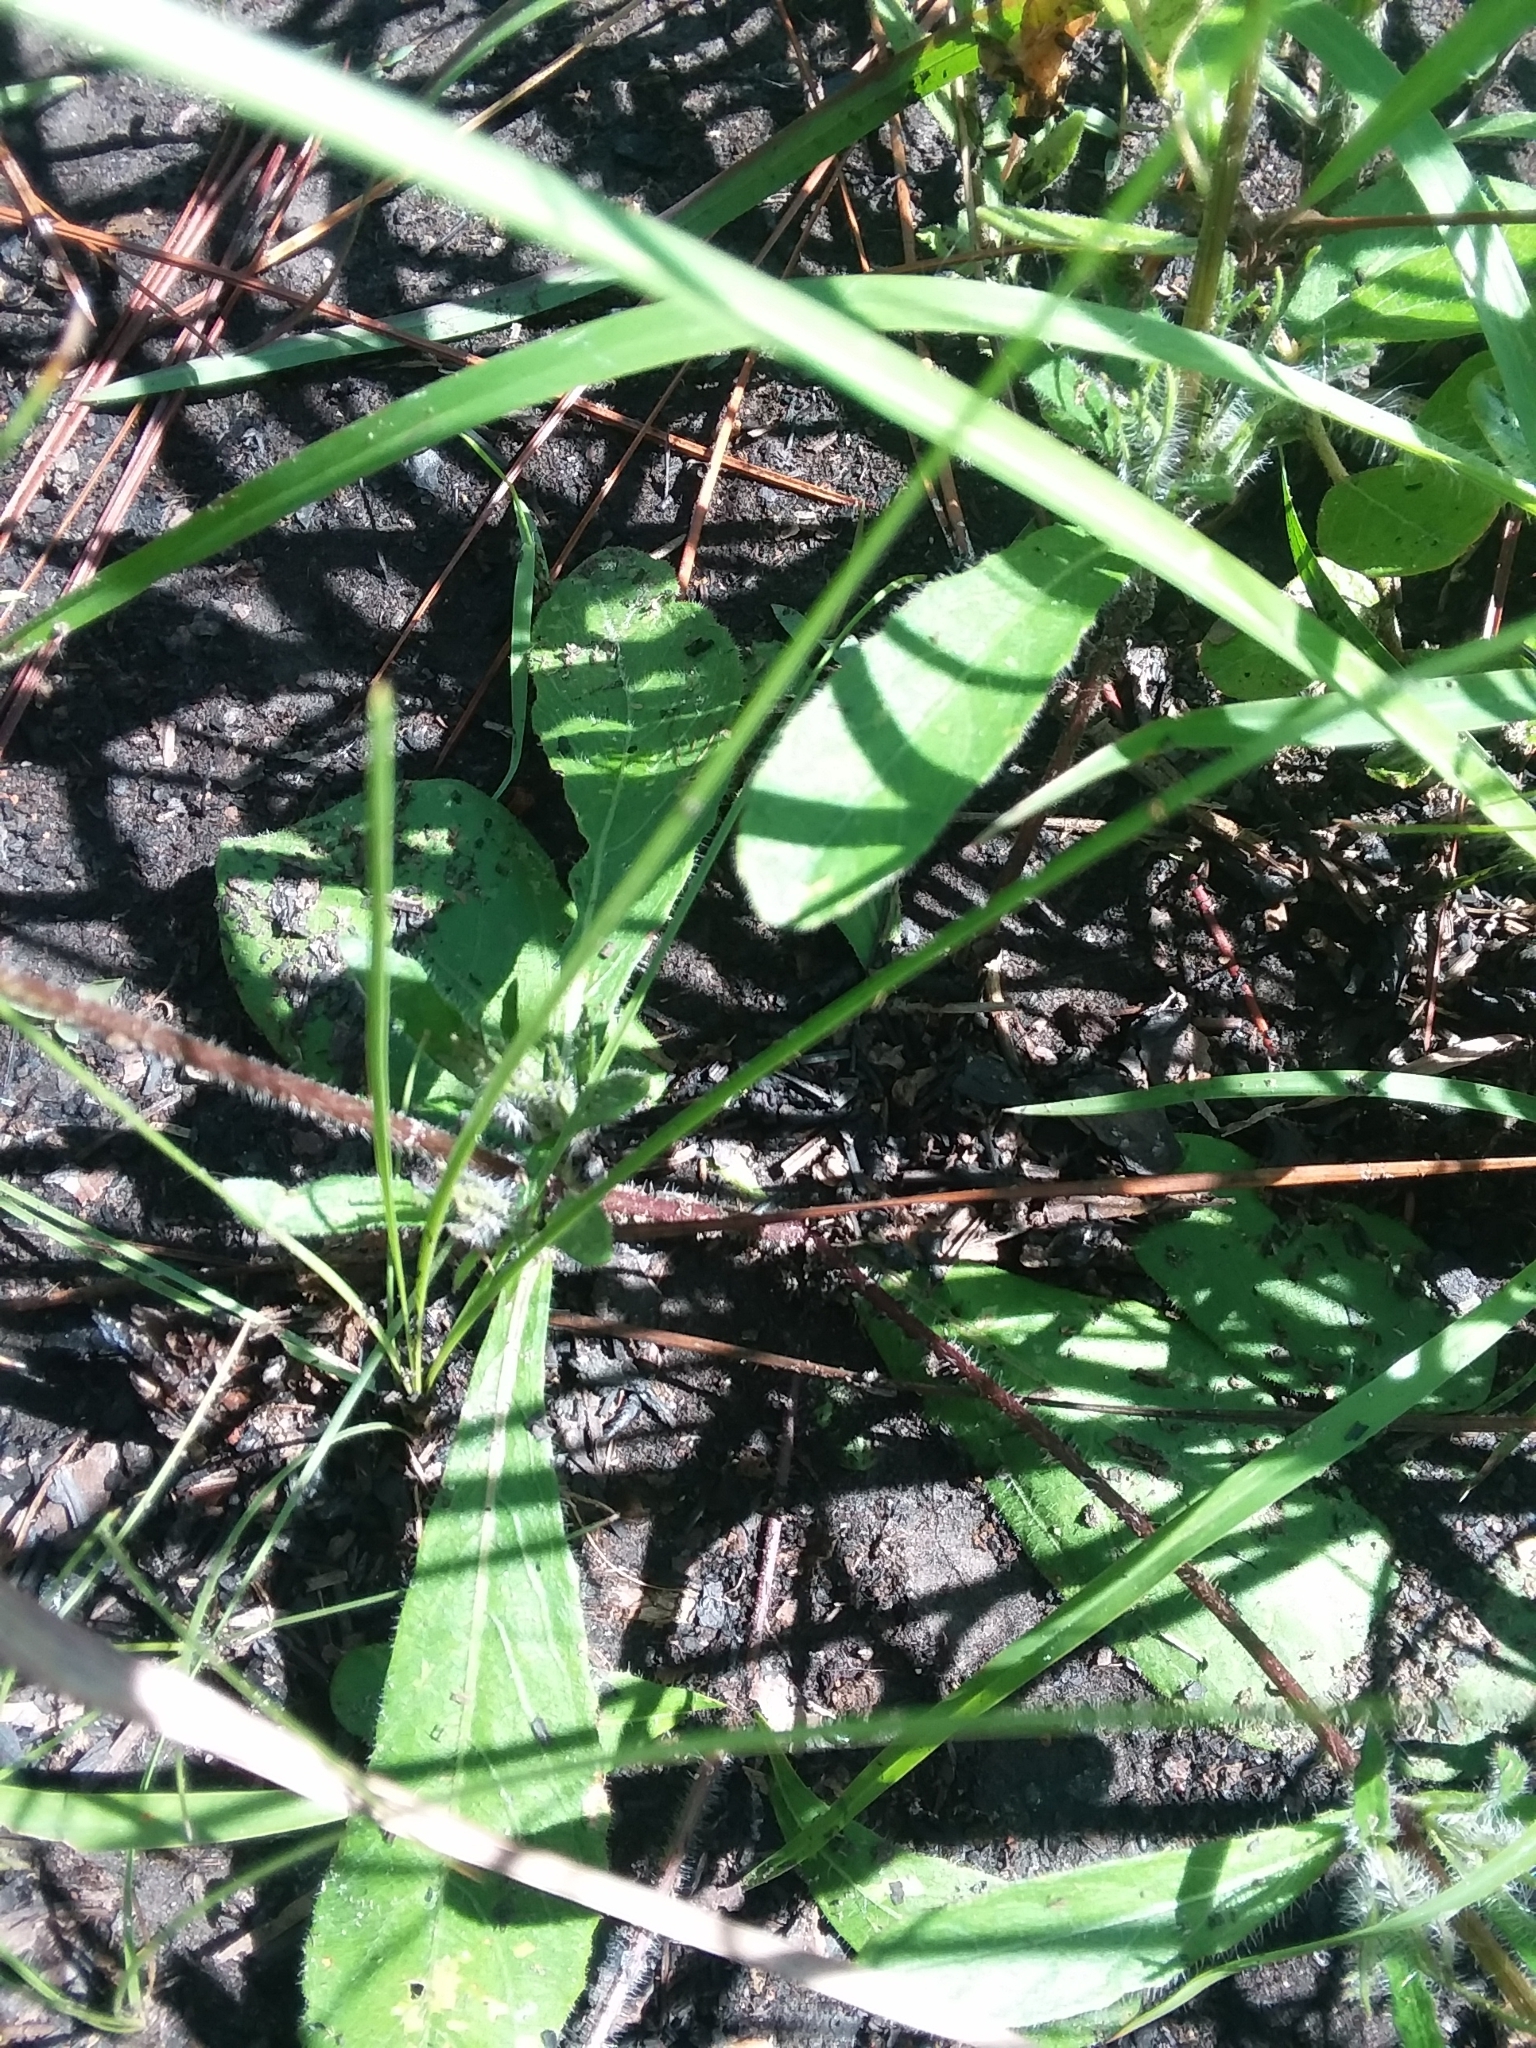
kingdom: Plantae
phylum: Tracheophyta
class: Magnoliopsida
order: Lamiales
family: Acanthaceae
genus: Ruellia
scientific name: Ruellia caroliniensis
